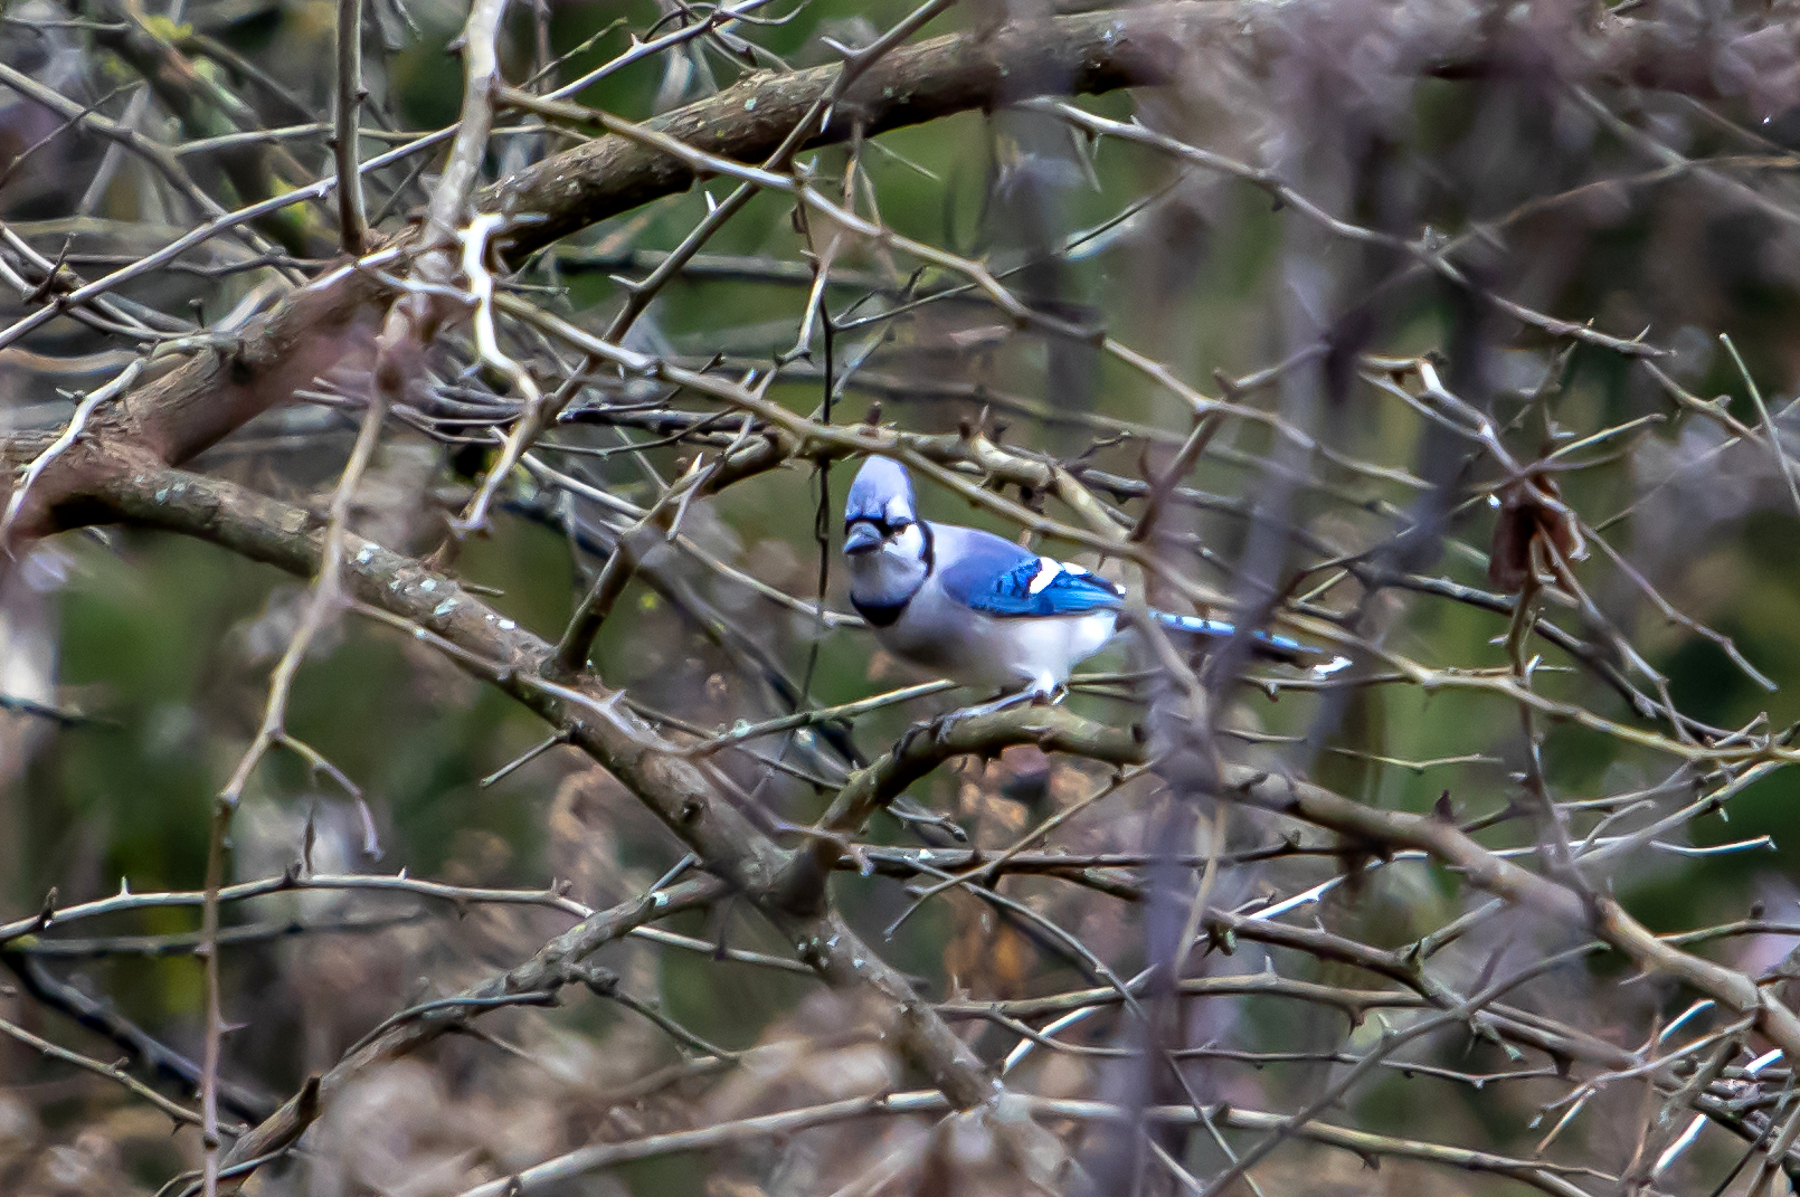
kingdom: Animalia
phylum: Chordata
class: Aves
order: Passeriformes
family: Corvidae
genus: Cyanocitta
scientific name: Cyanocitta cristata
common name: Blue jay
